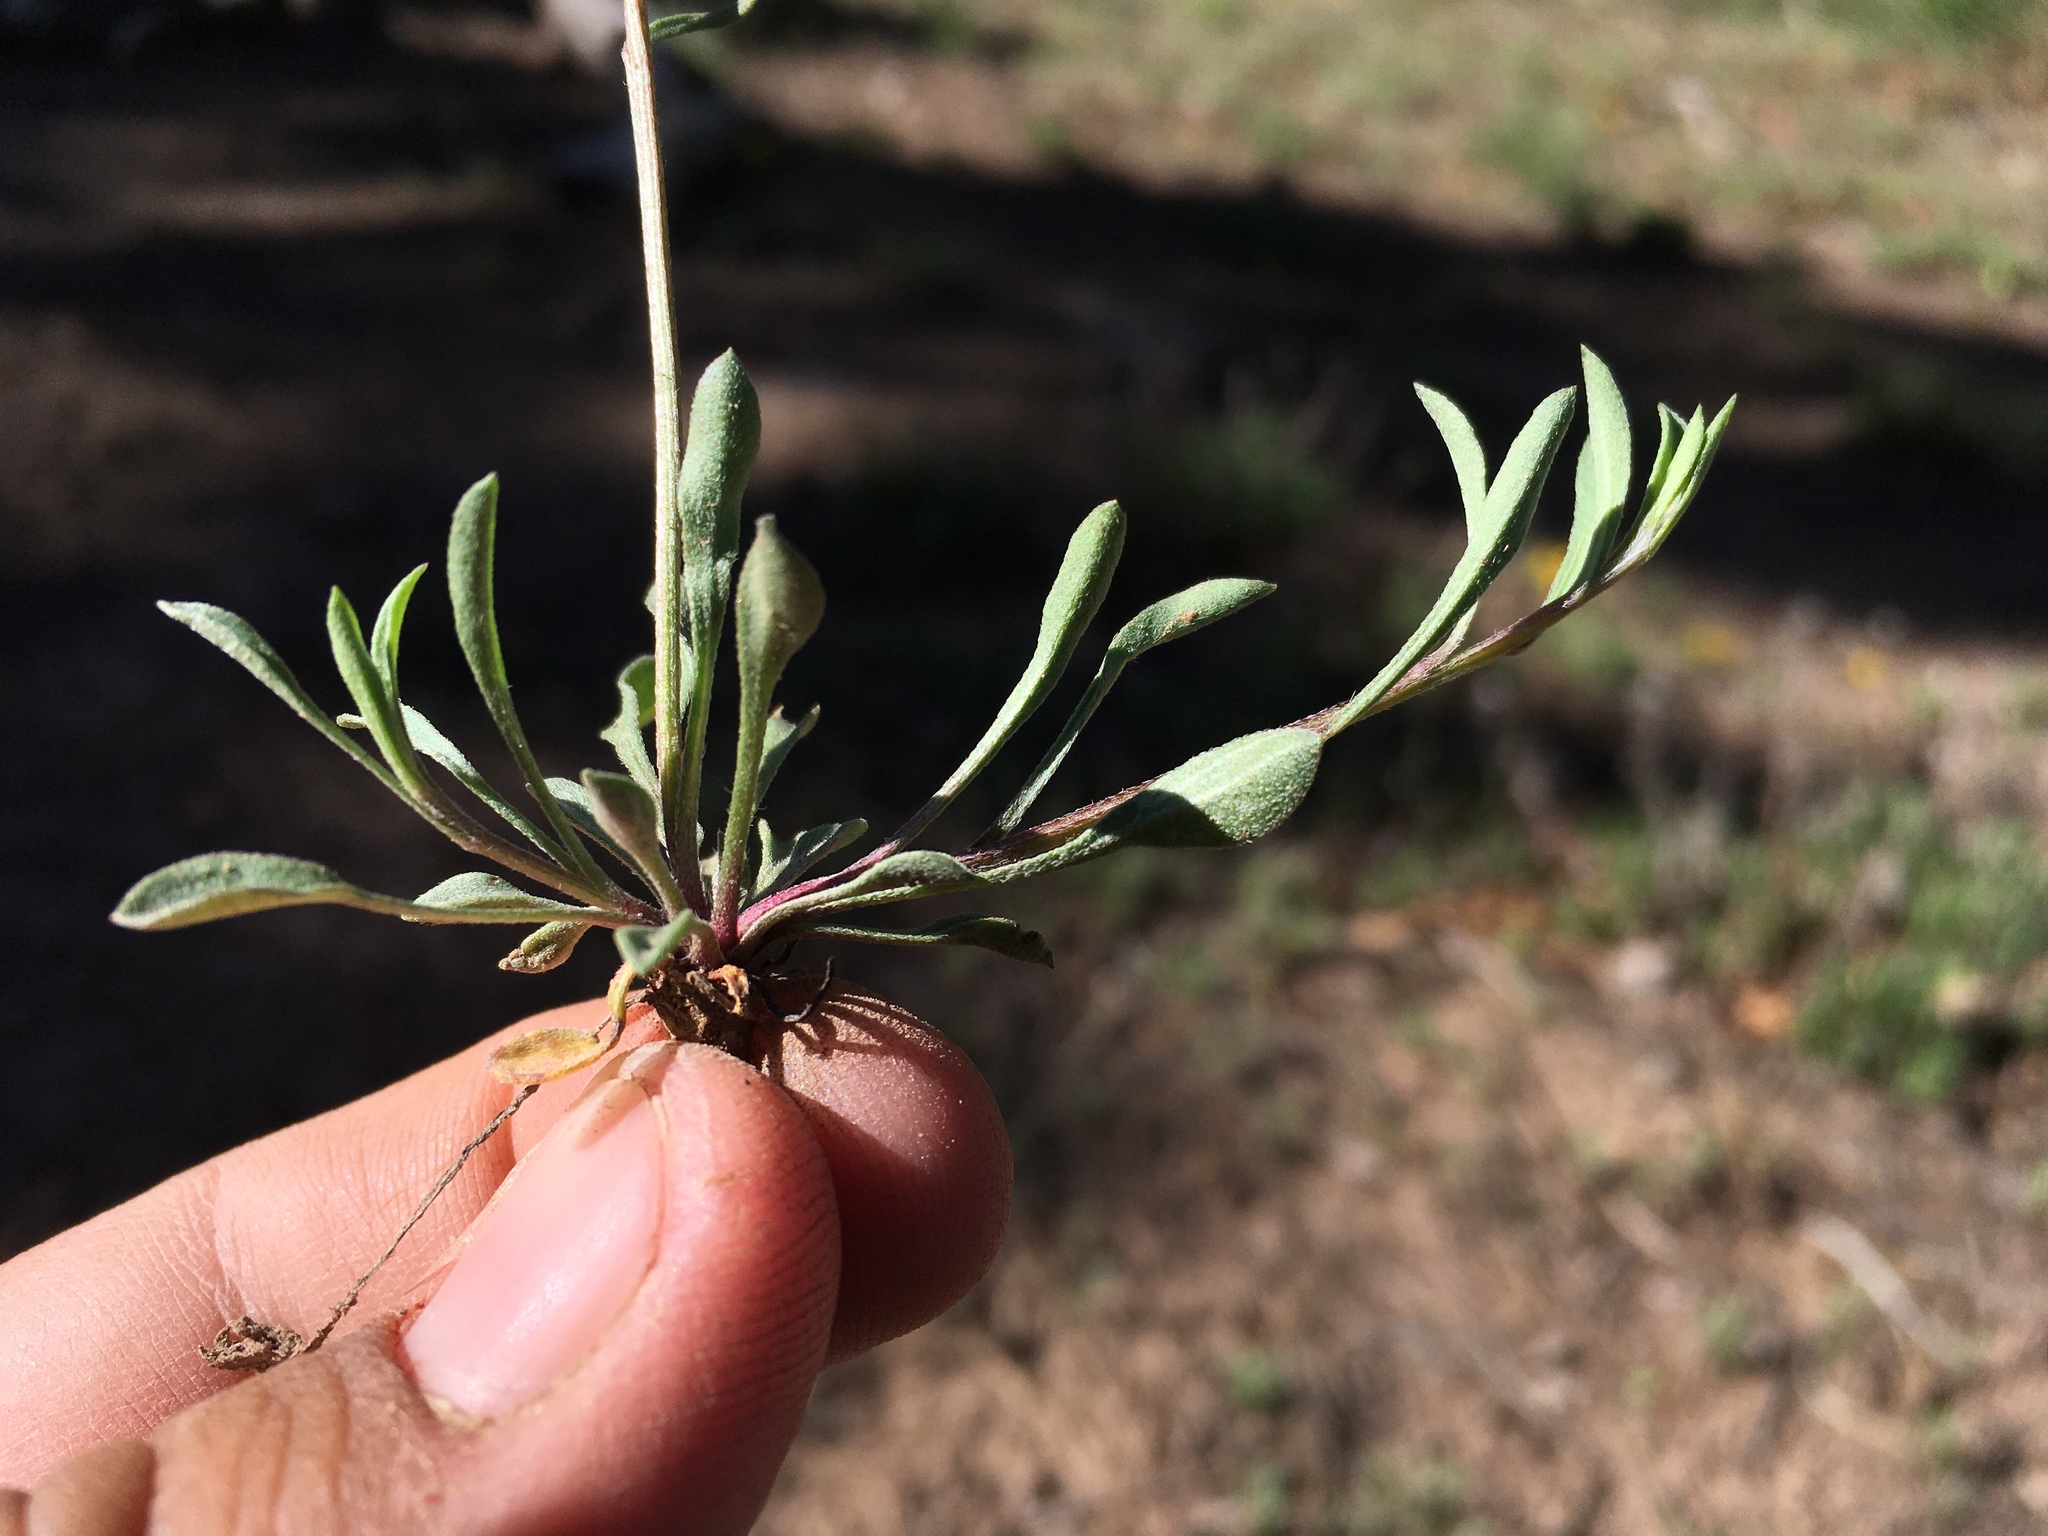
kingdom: Plantae
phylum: Tracheophyta
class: Magnoliopsida
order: Asterales
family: Asteraceae
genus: Erigeron
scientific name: Erigeron flagellaris
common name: Running fleabane
